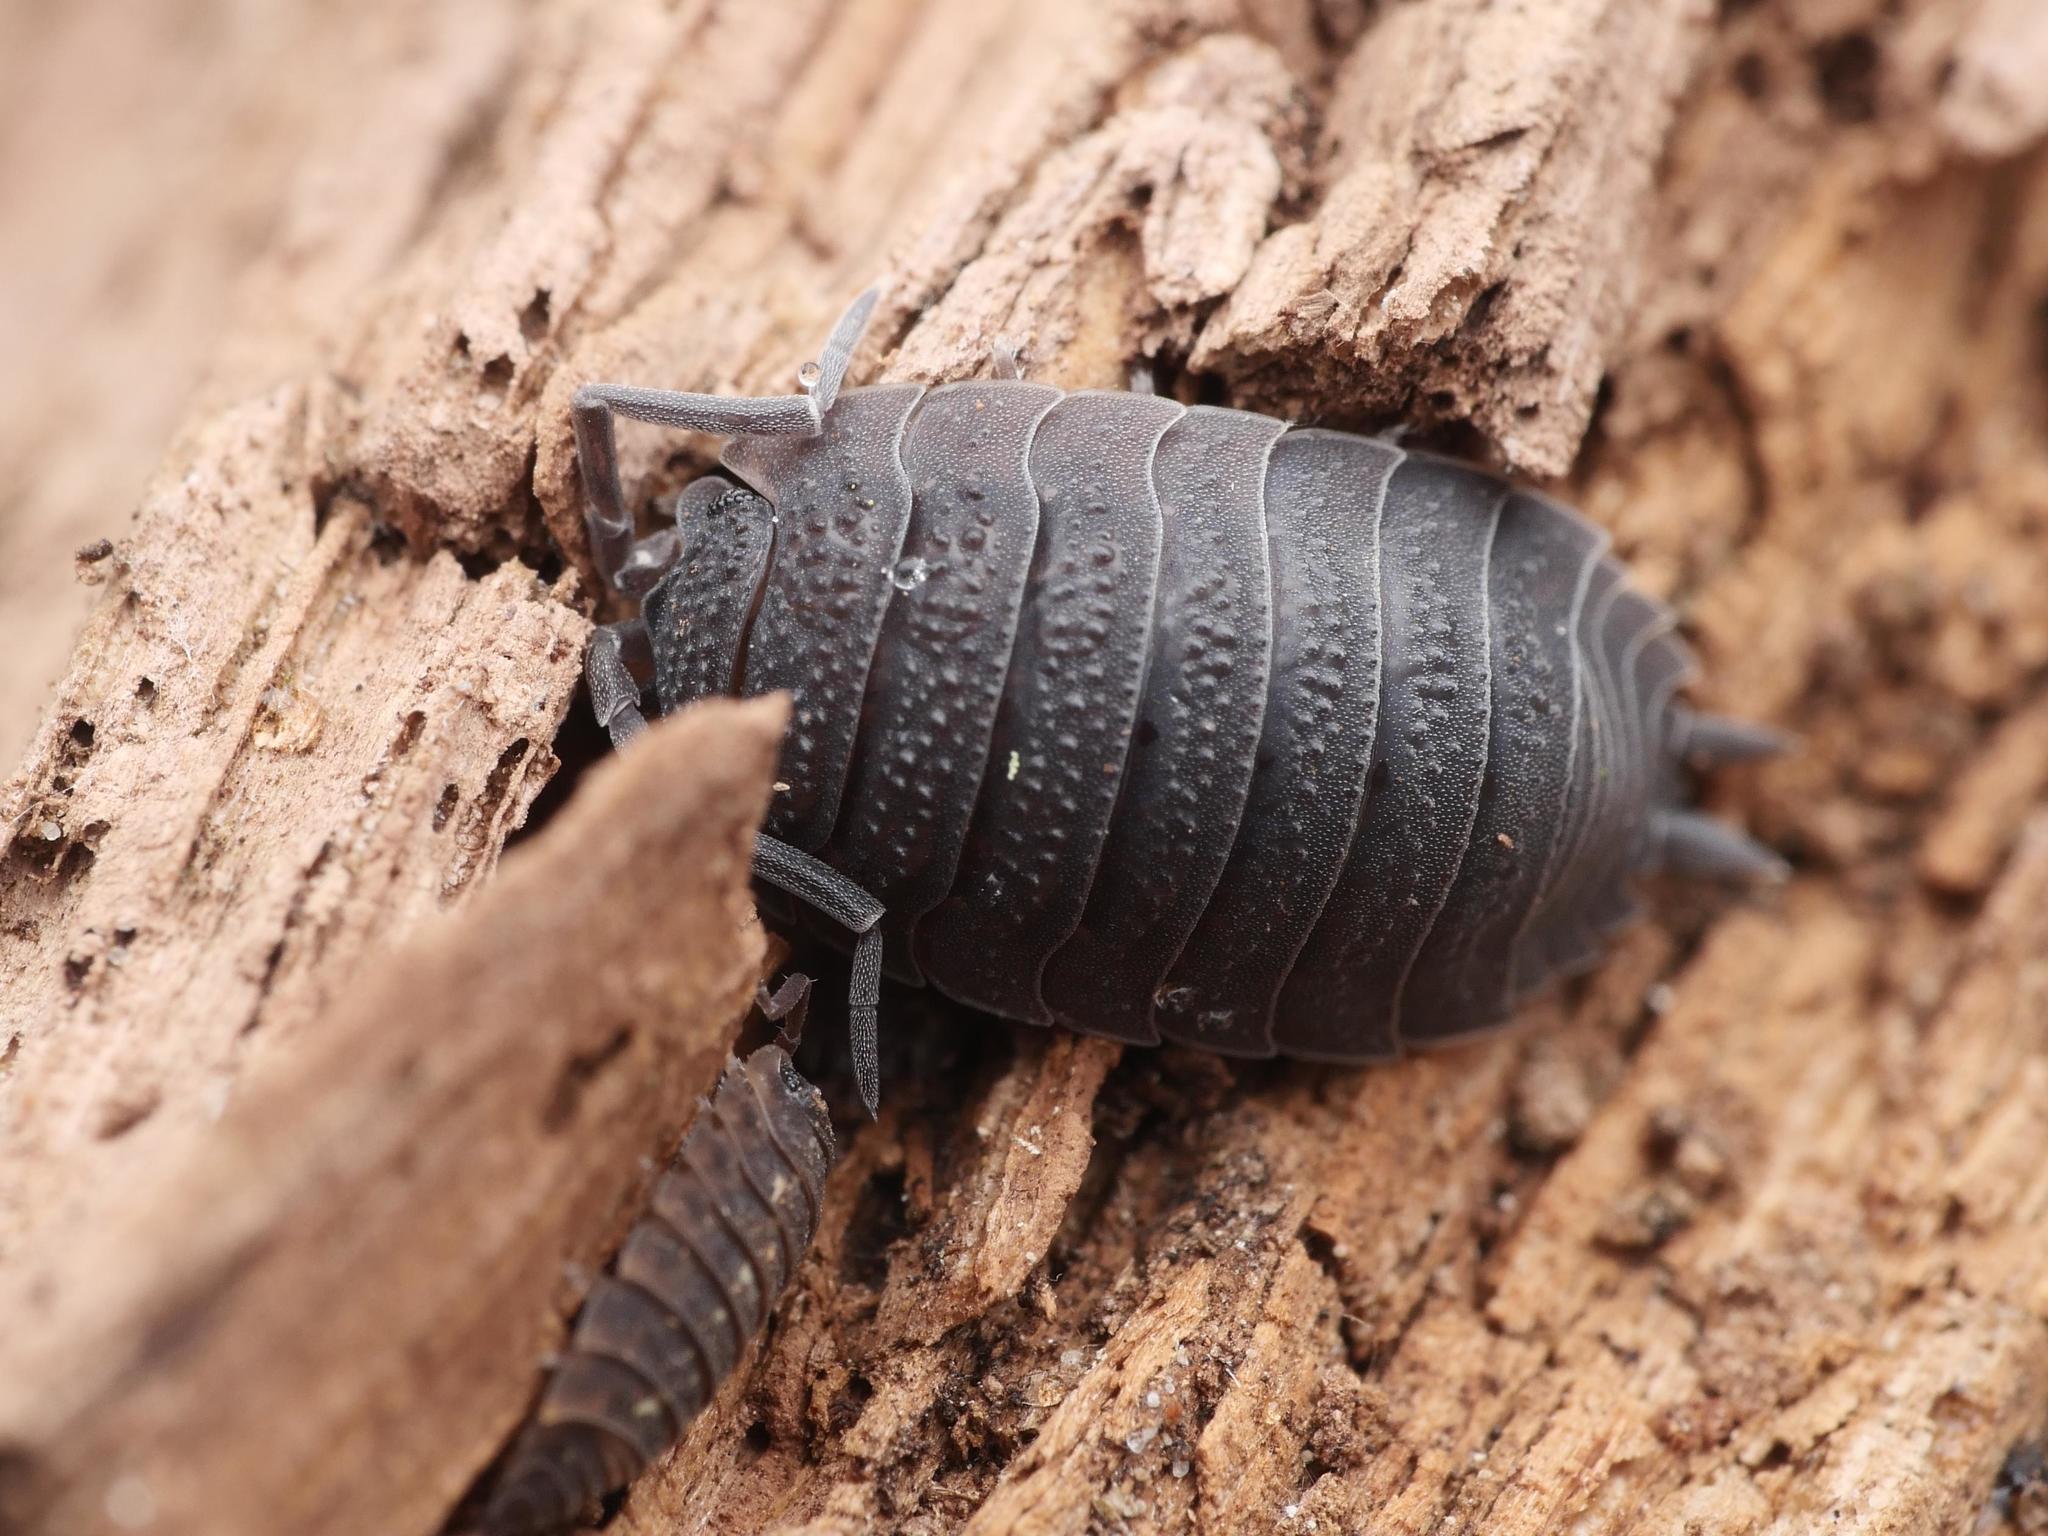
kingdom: Animalia
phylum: Arthropoda
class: Malacostraca
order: Isopoda
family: Porcellionidae
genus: Porcellio
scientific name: Porcellio scaber
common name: Common rough woodlouse
